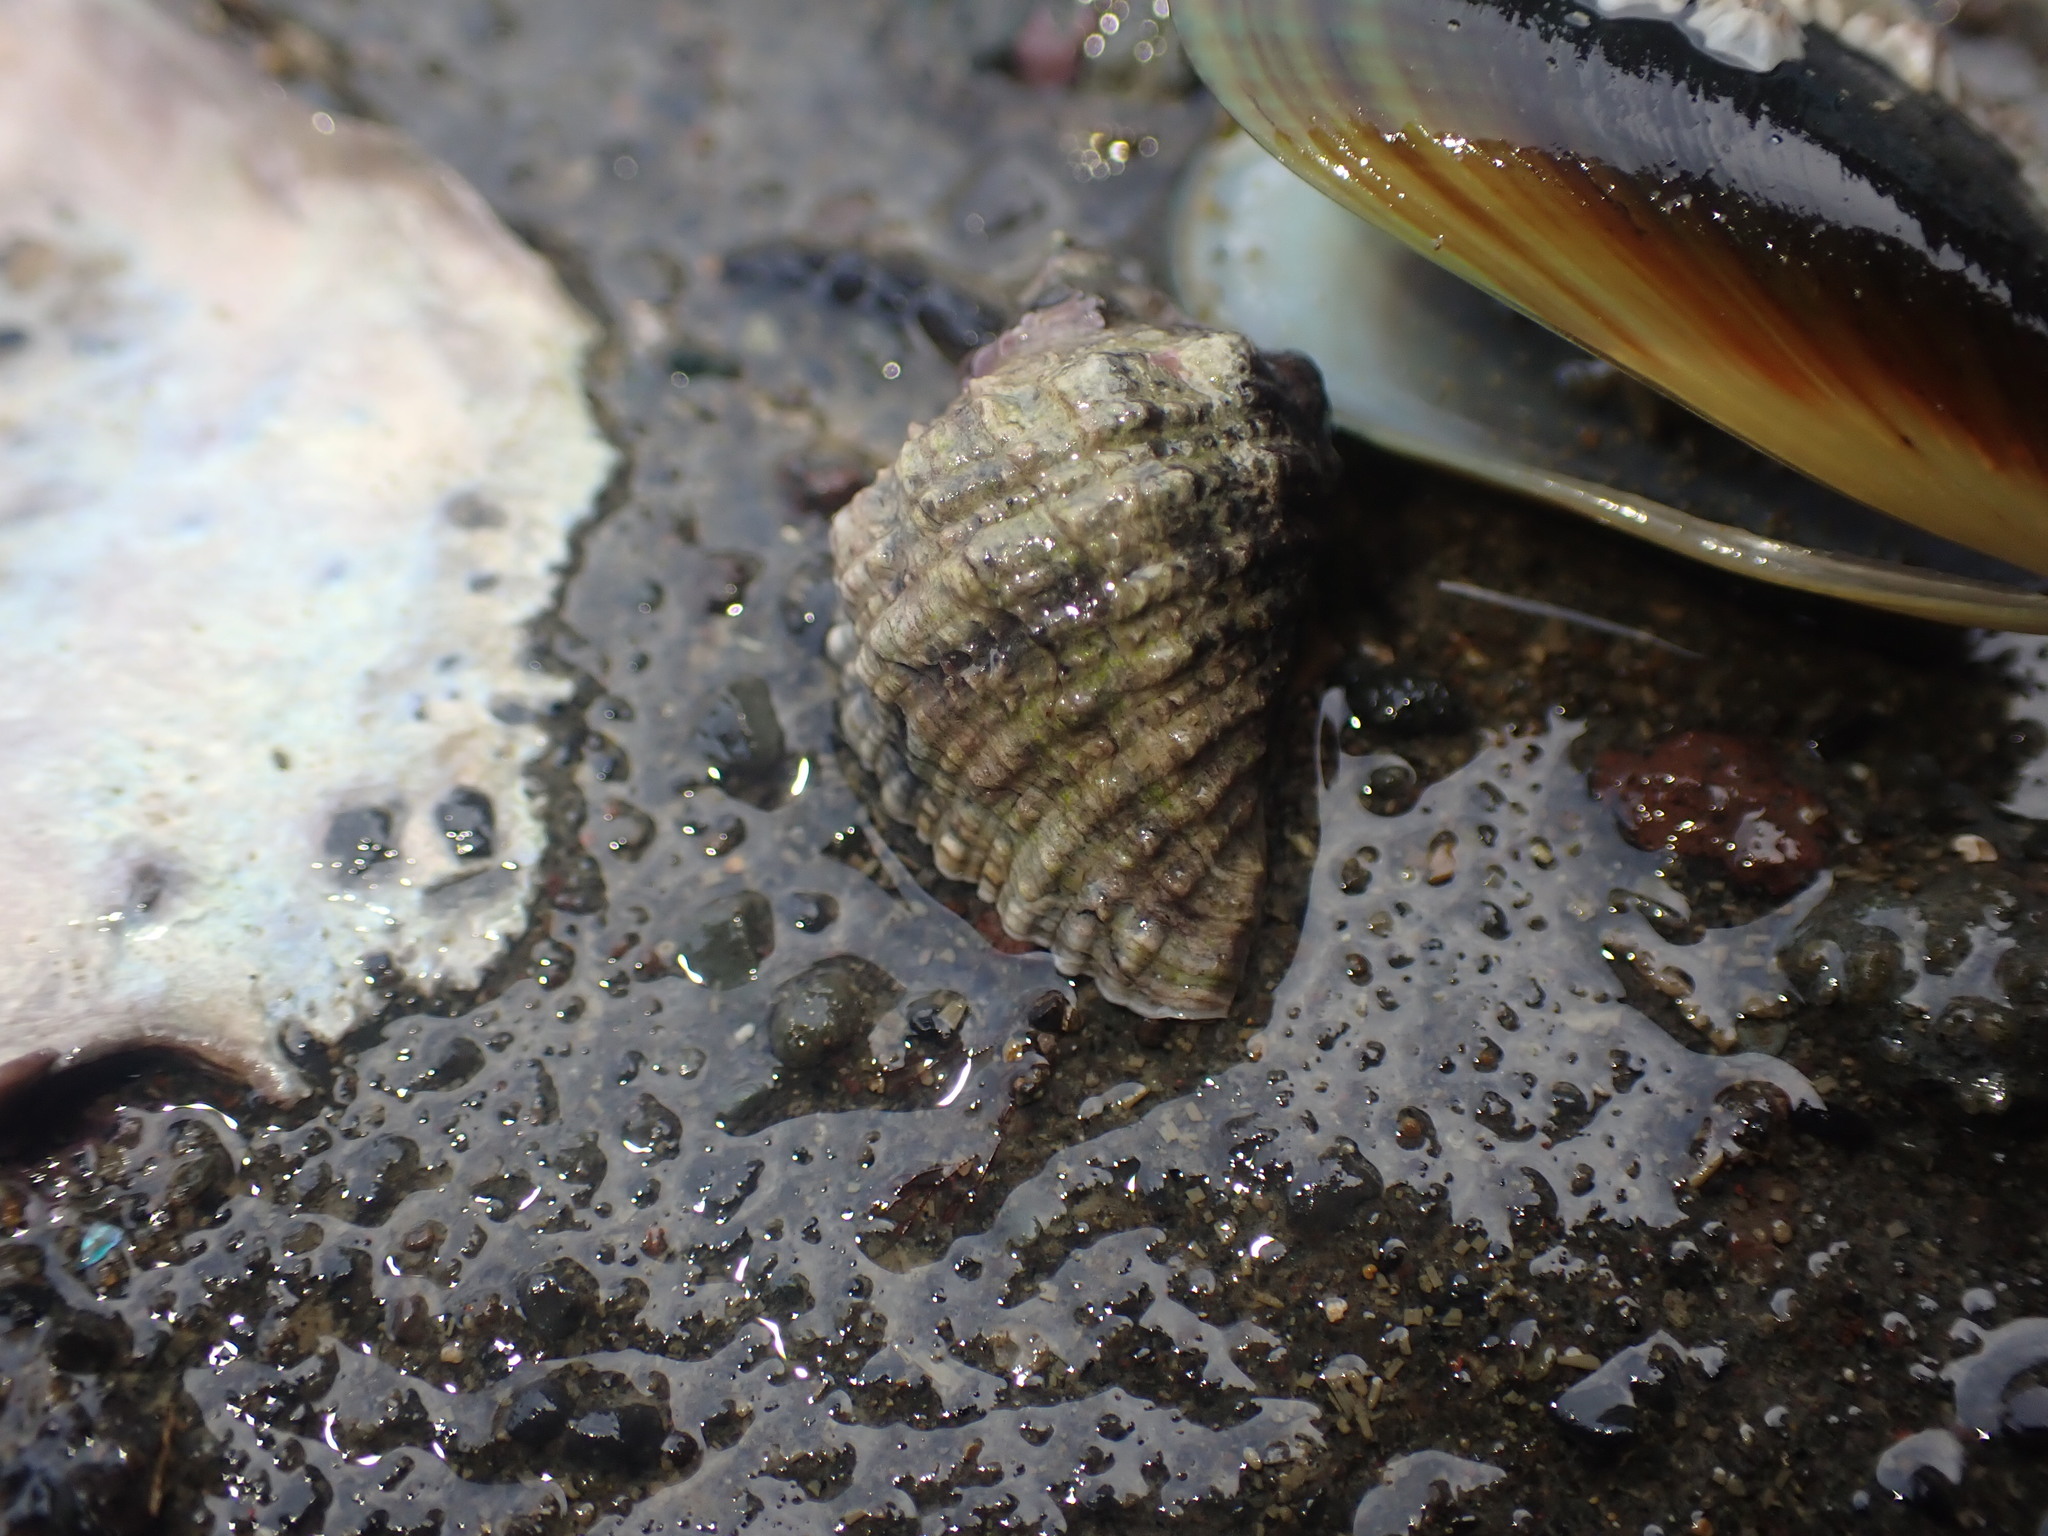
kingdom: Animalia
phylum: Mollusca
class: Gastropoda
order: Neogastropoda
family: Muricidae
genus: Haustrum
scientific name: Haustrum haustorium
